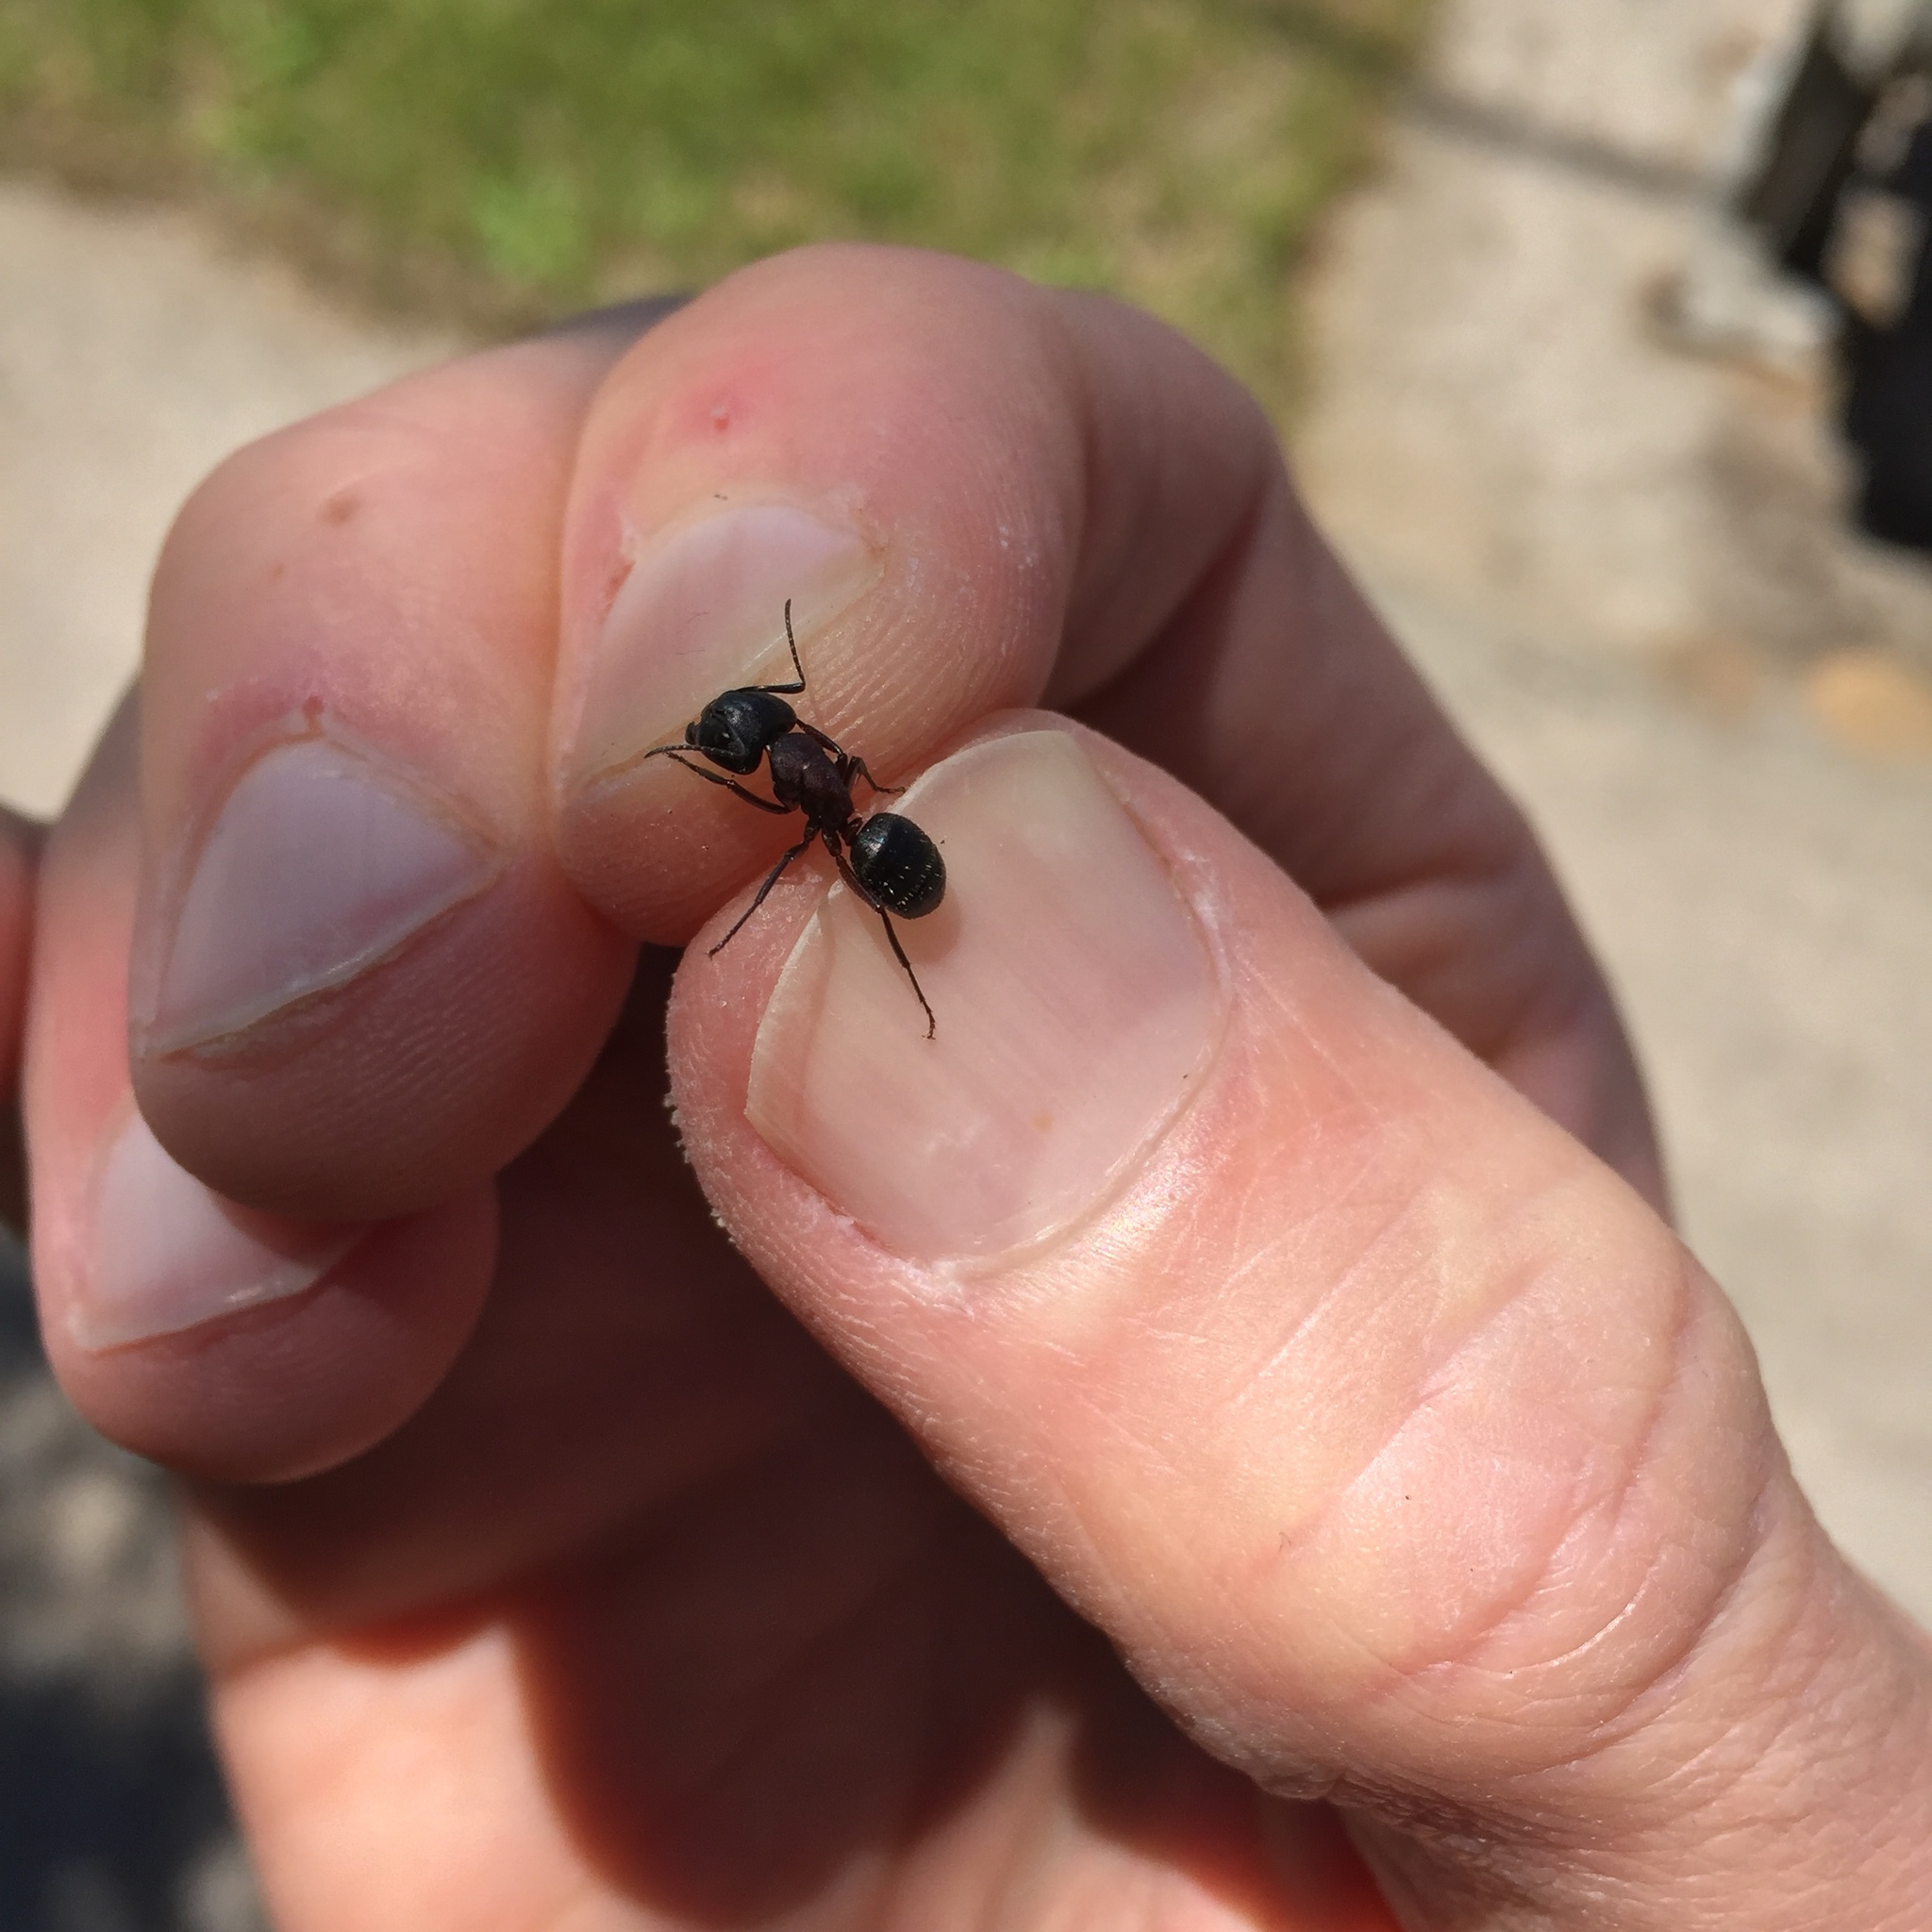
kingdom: Animalia
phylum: Arthropoda
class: Insecta
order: Hymenoptera
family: Formicidae
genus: Camponotus
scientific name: Camponotus novaeboracensis
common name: New york carpenter ant
